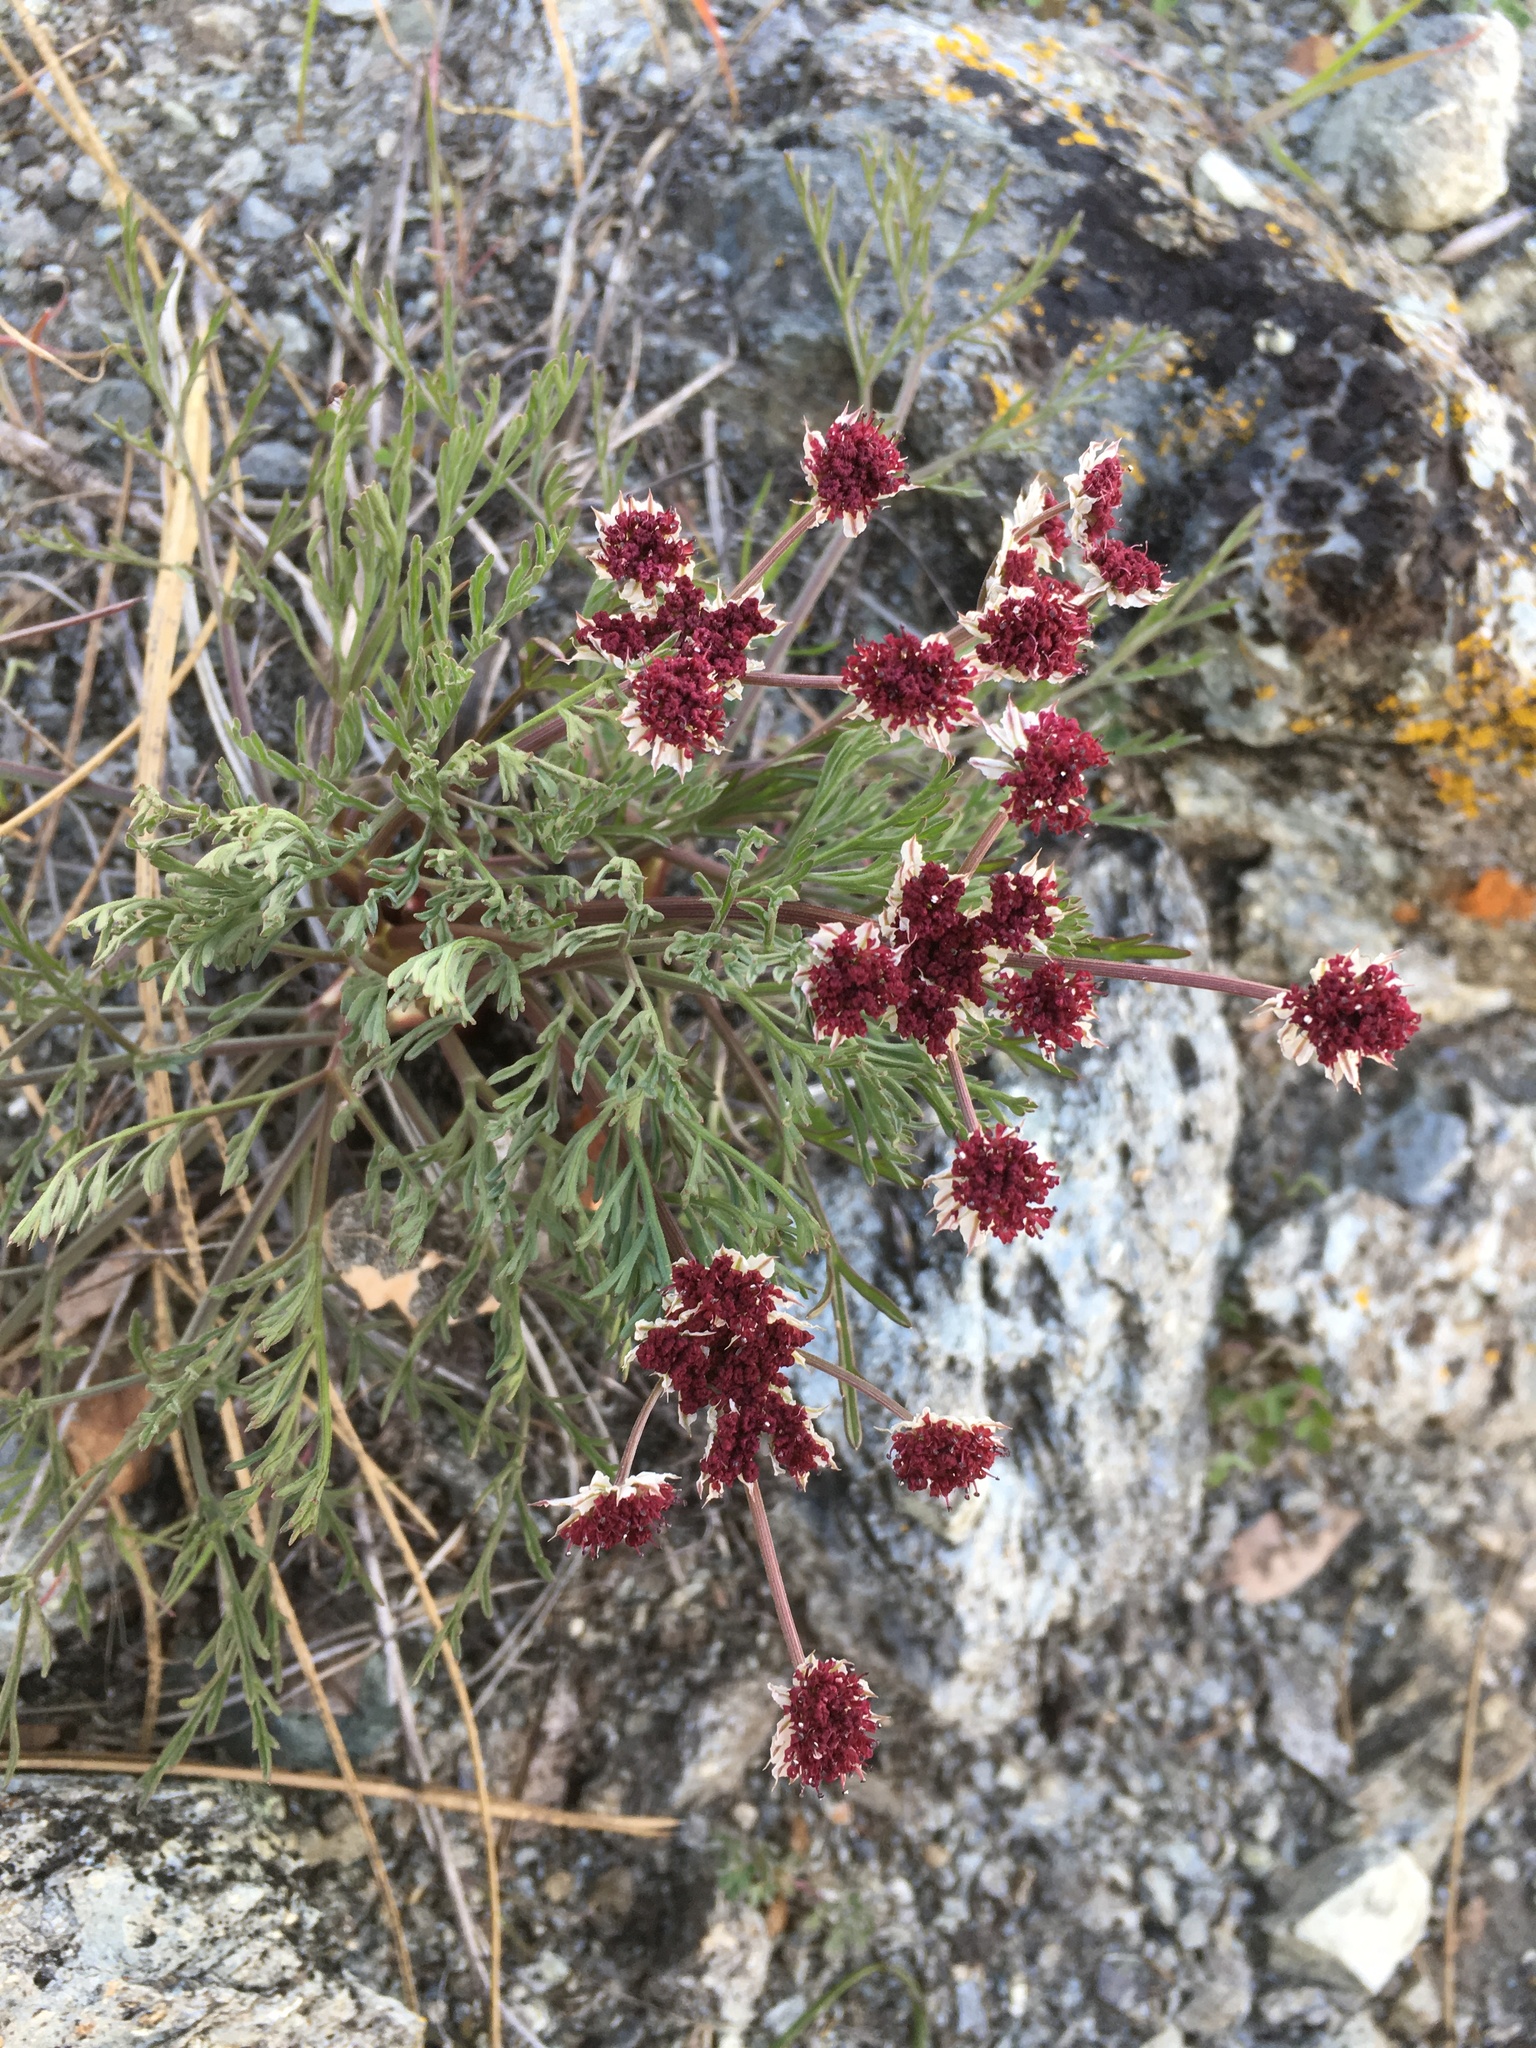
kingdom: Plantae
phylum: Tracheophyta
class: Magnoliopsida
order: Apiales
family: Apiaceae
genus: Lomatium
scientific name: Lomatium hooveri
